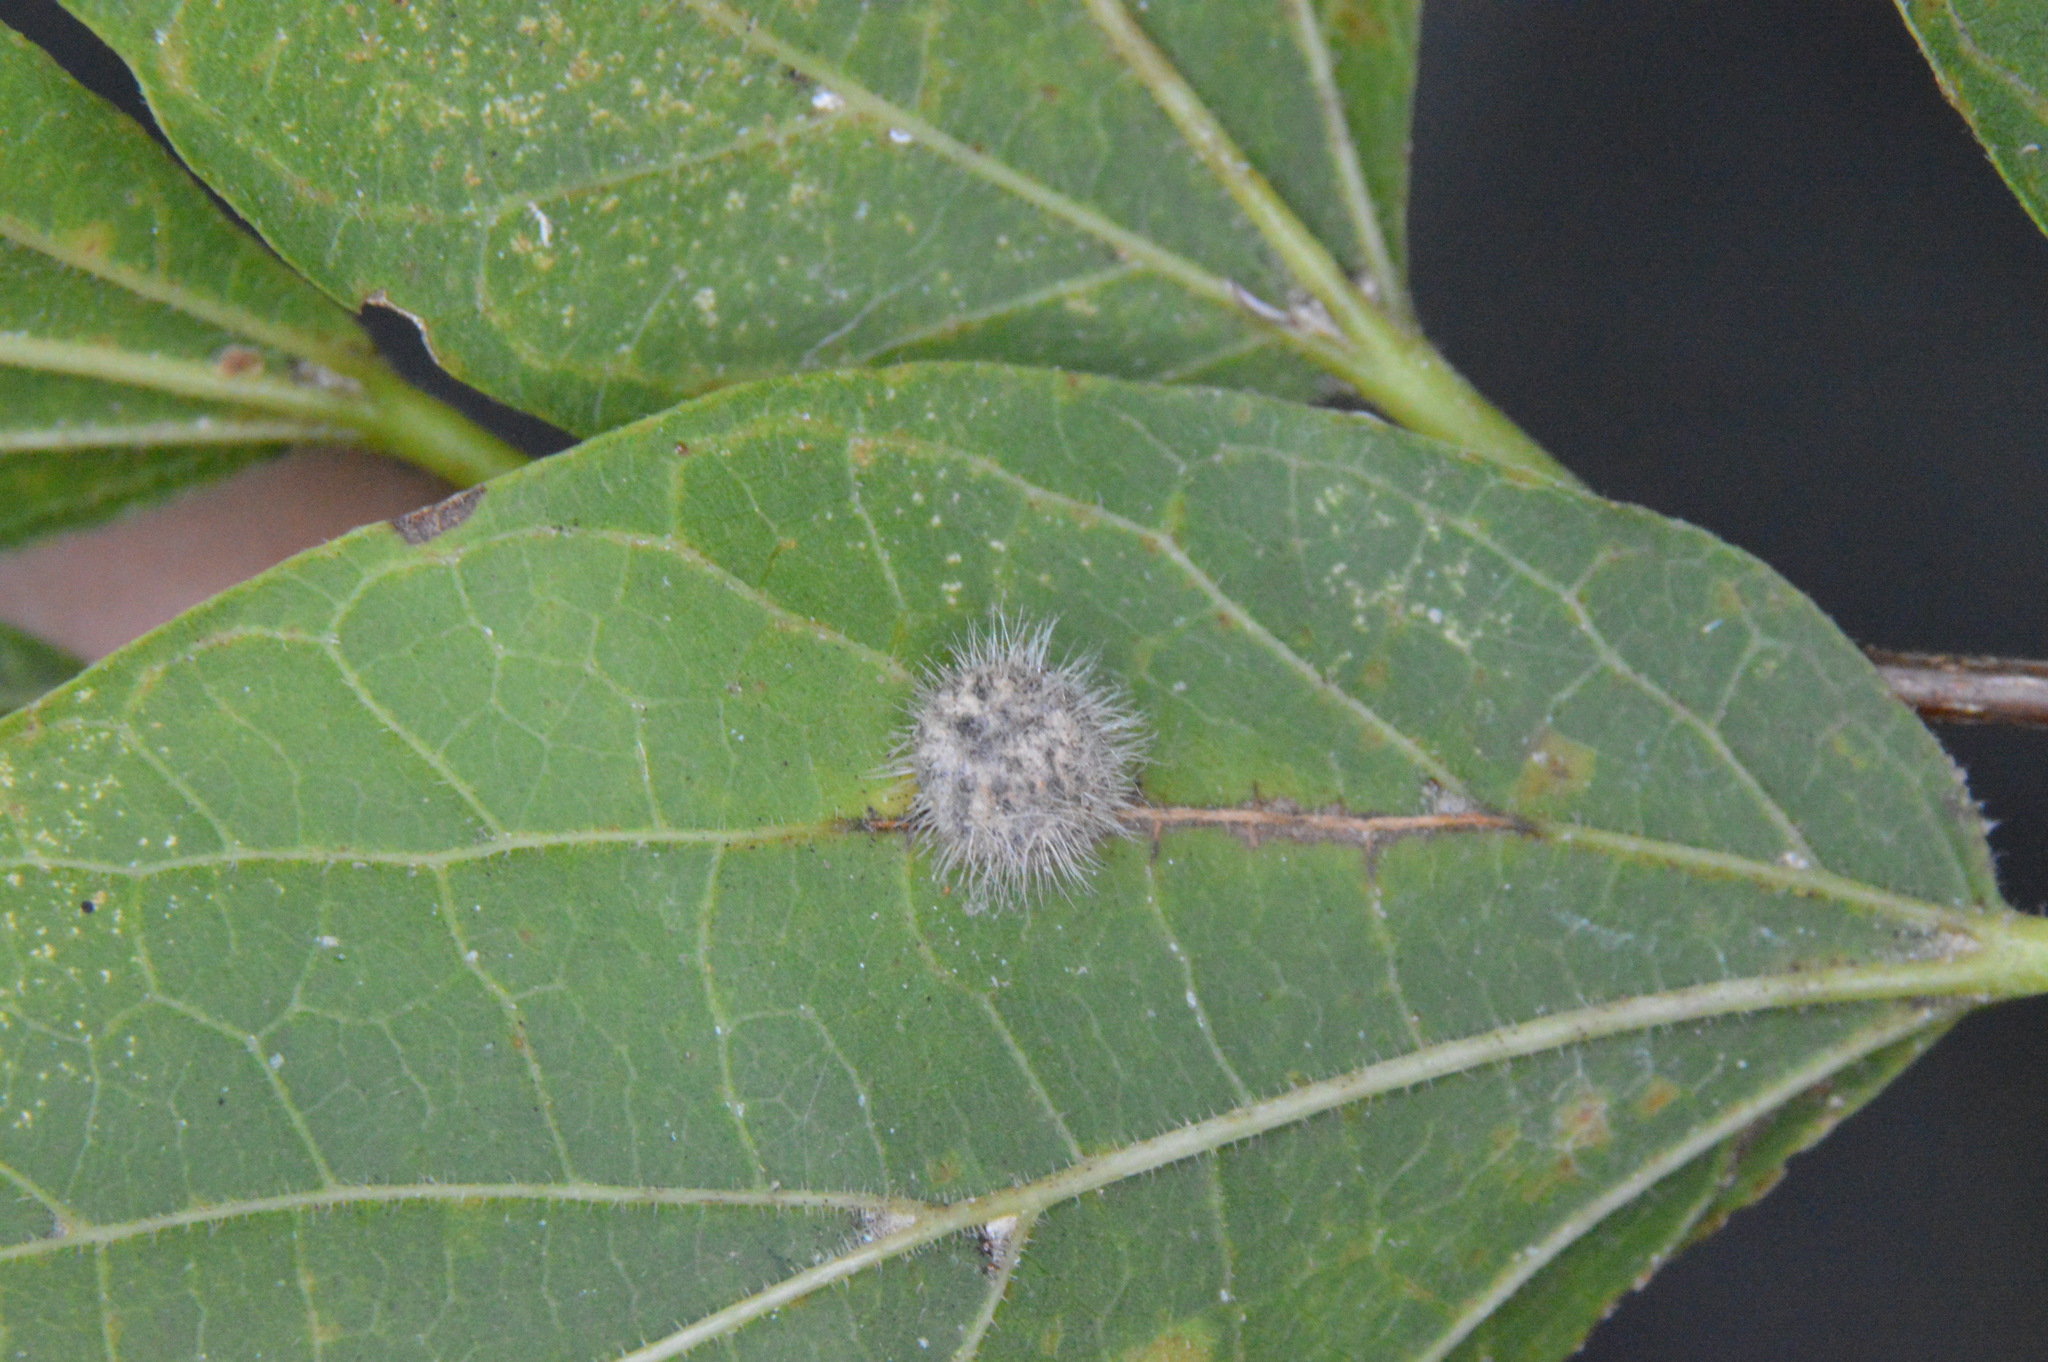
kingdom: Animalia
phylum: Arthropoda
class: Insecta
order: Diptera
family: Cecidomyiidae
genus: Celticecis
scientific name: Celticecis pubescens
